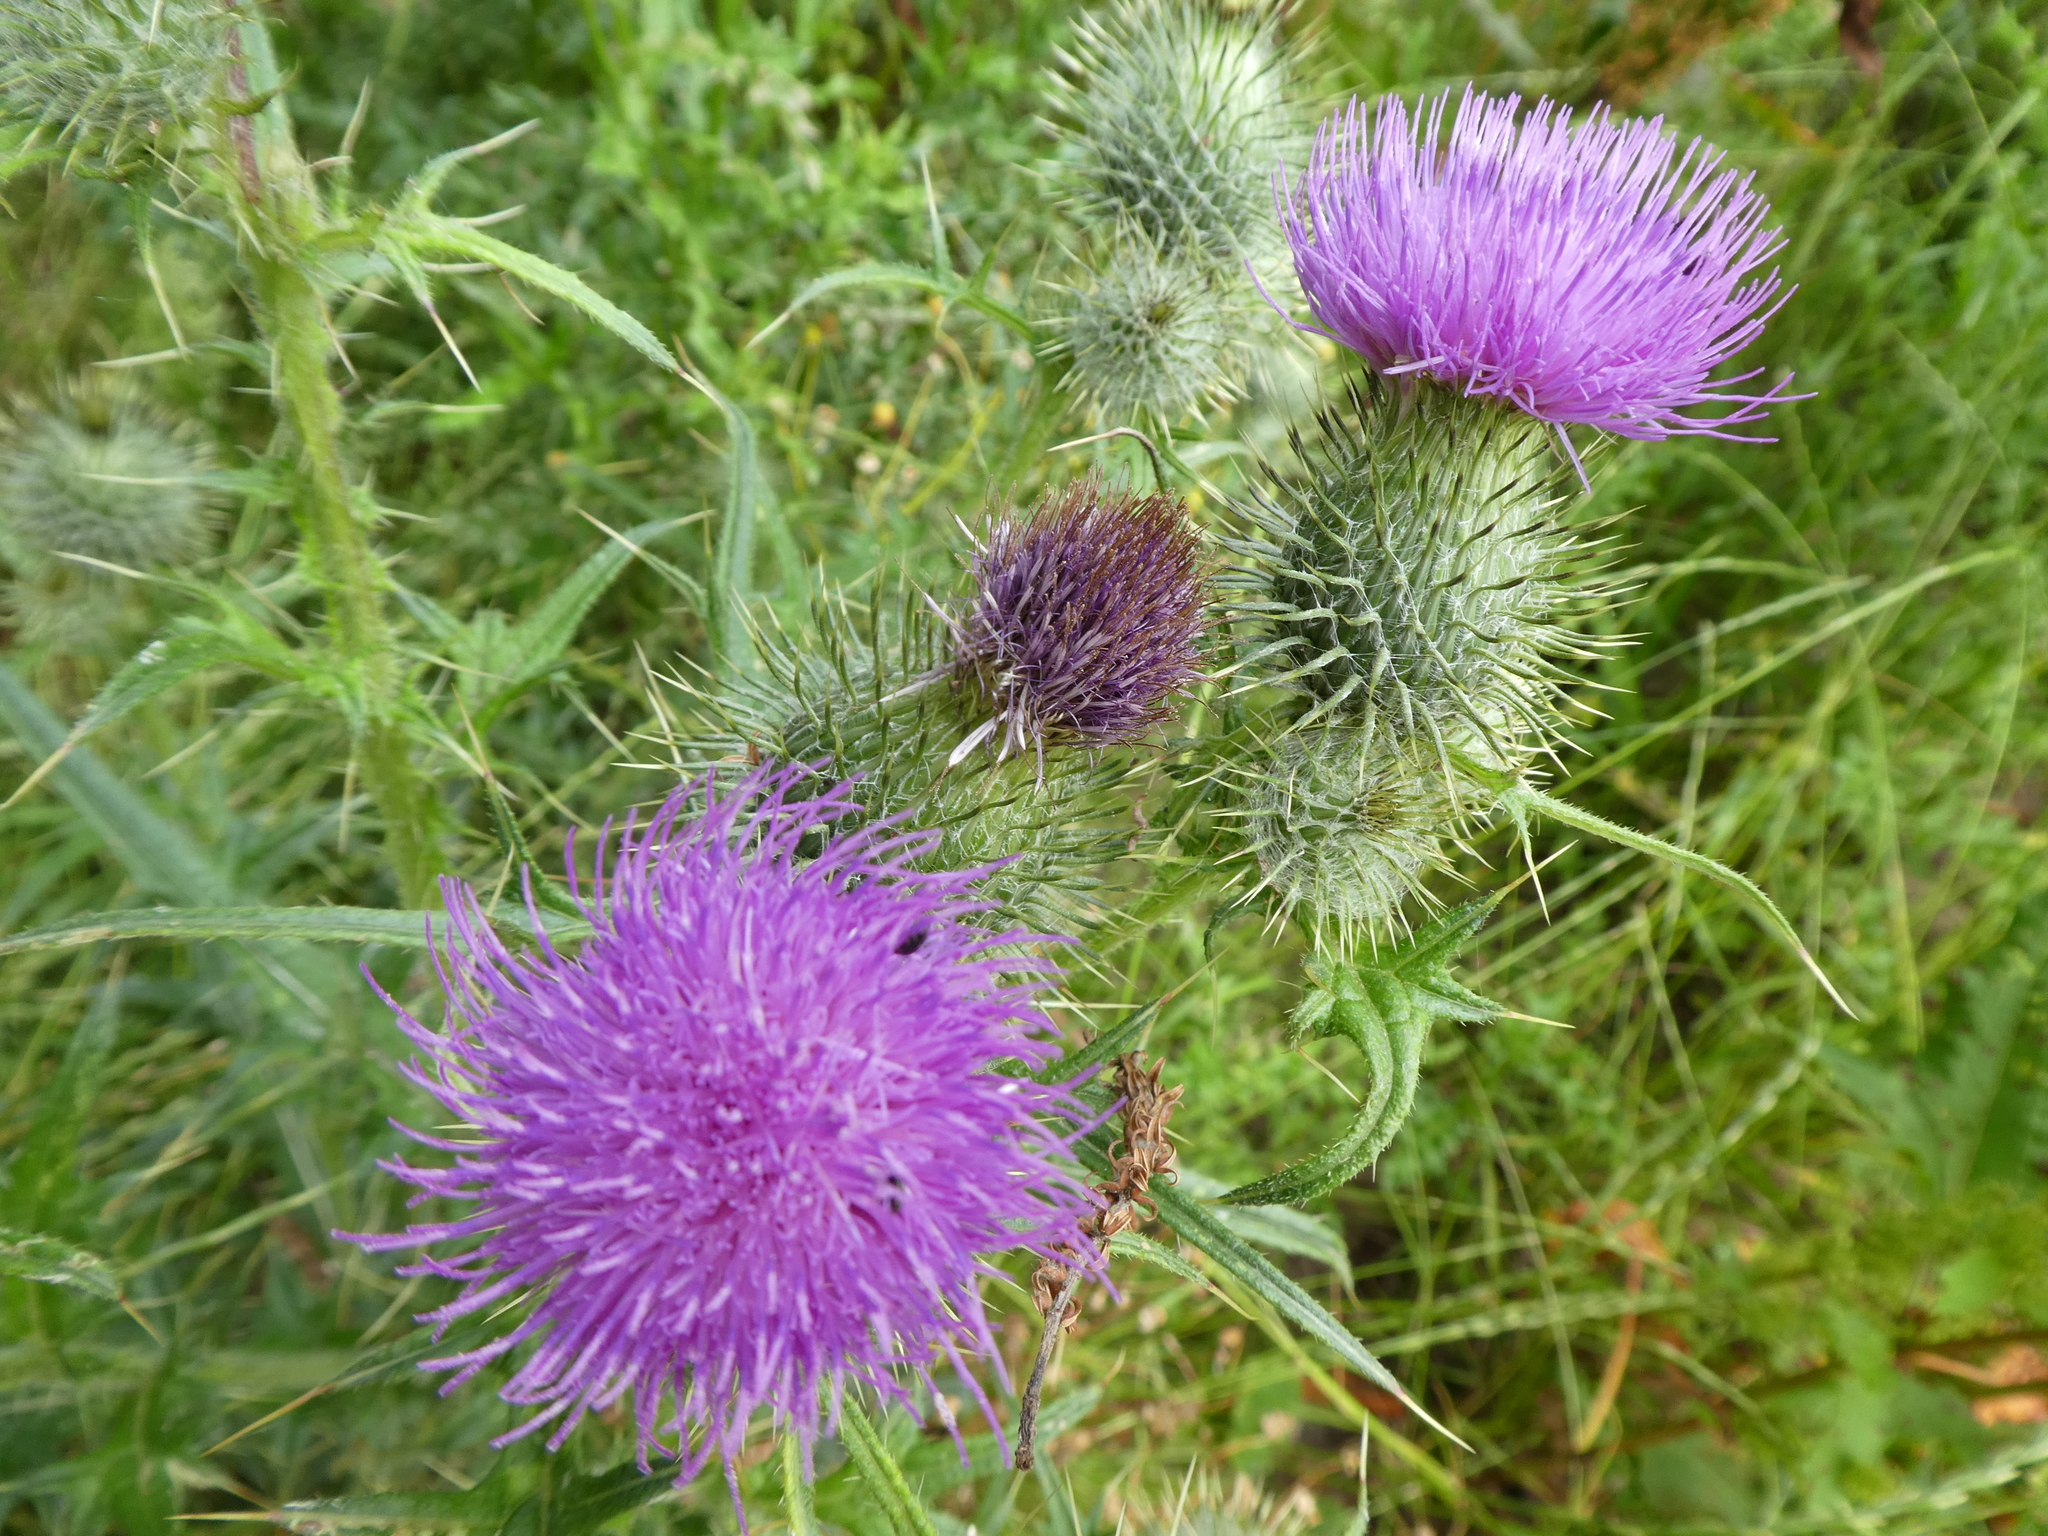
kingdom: Plantae
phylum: Tracheophyta
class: Magnoliopsida
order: Asterales
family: Asteraceae
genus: Cirsium
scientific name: Cirsium vulgare
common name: Bull thistle
